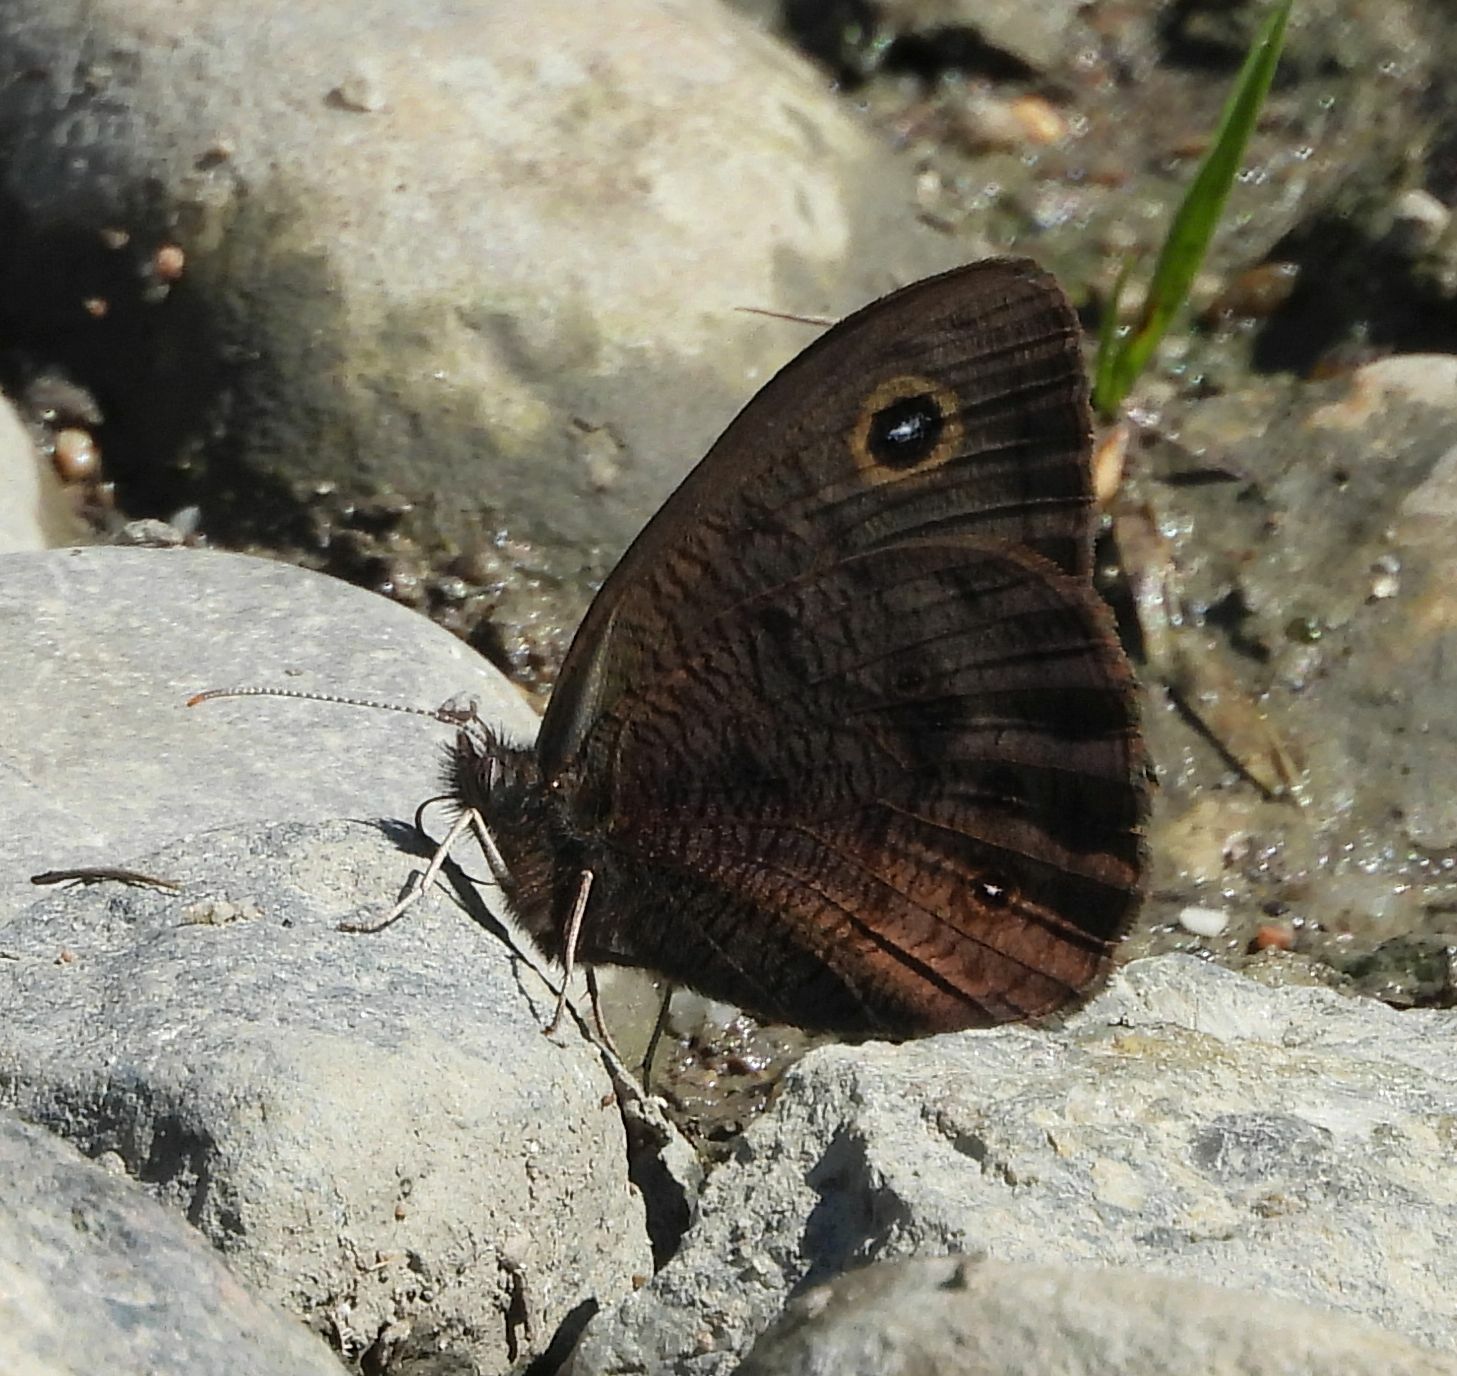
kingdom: Animalia
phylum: Arthropoda
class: Insecta
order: Lepidoptera
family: Nymphalidae
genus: Cercyonis
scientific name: Cercyonis pegala
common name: Common wood-nymph
